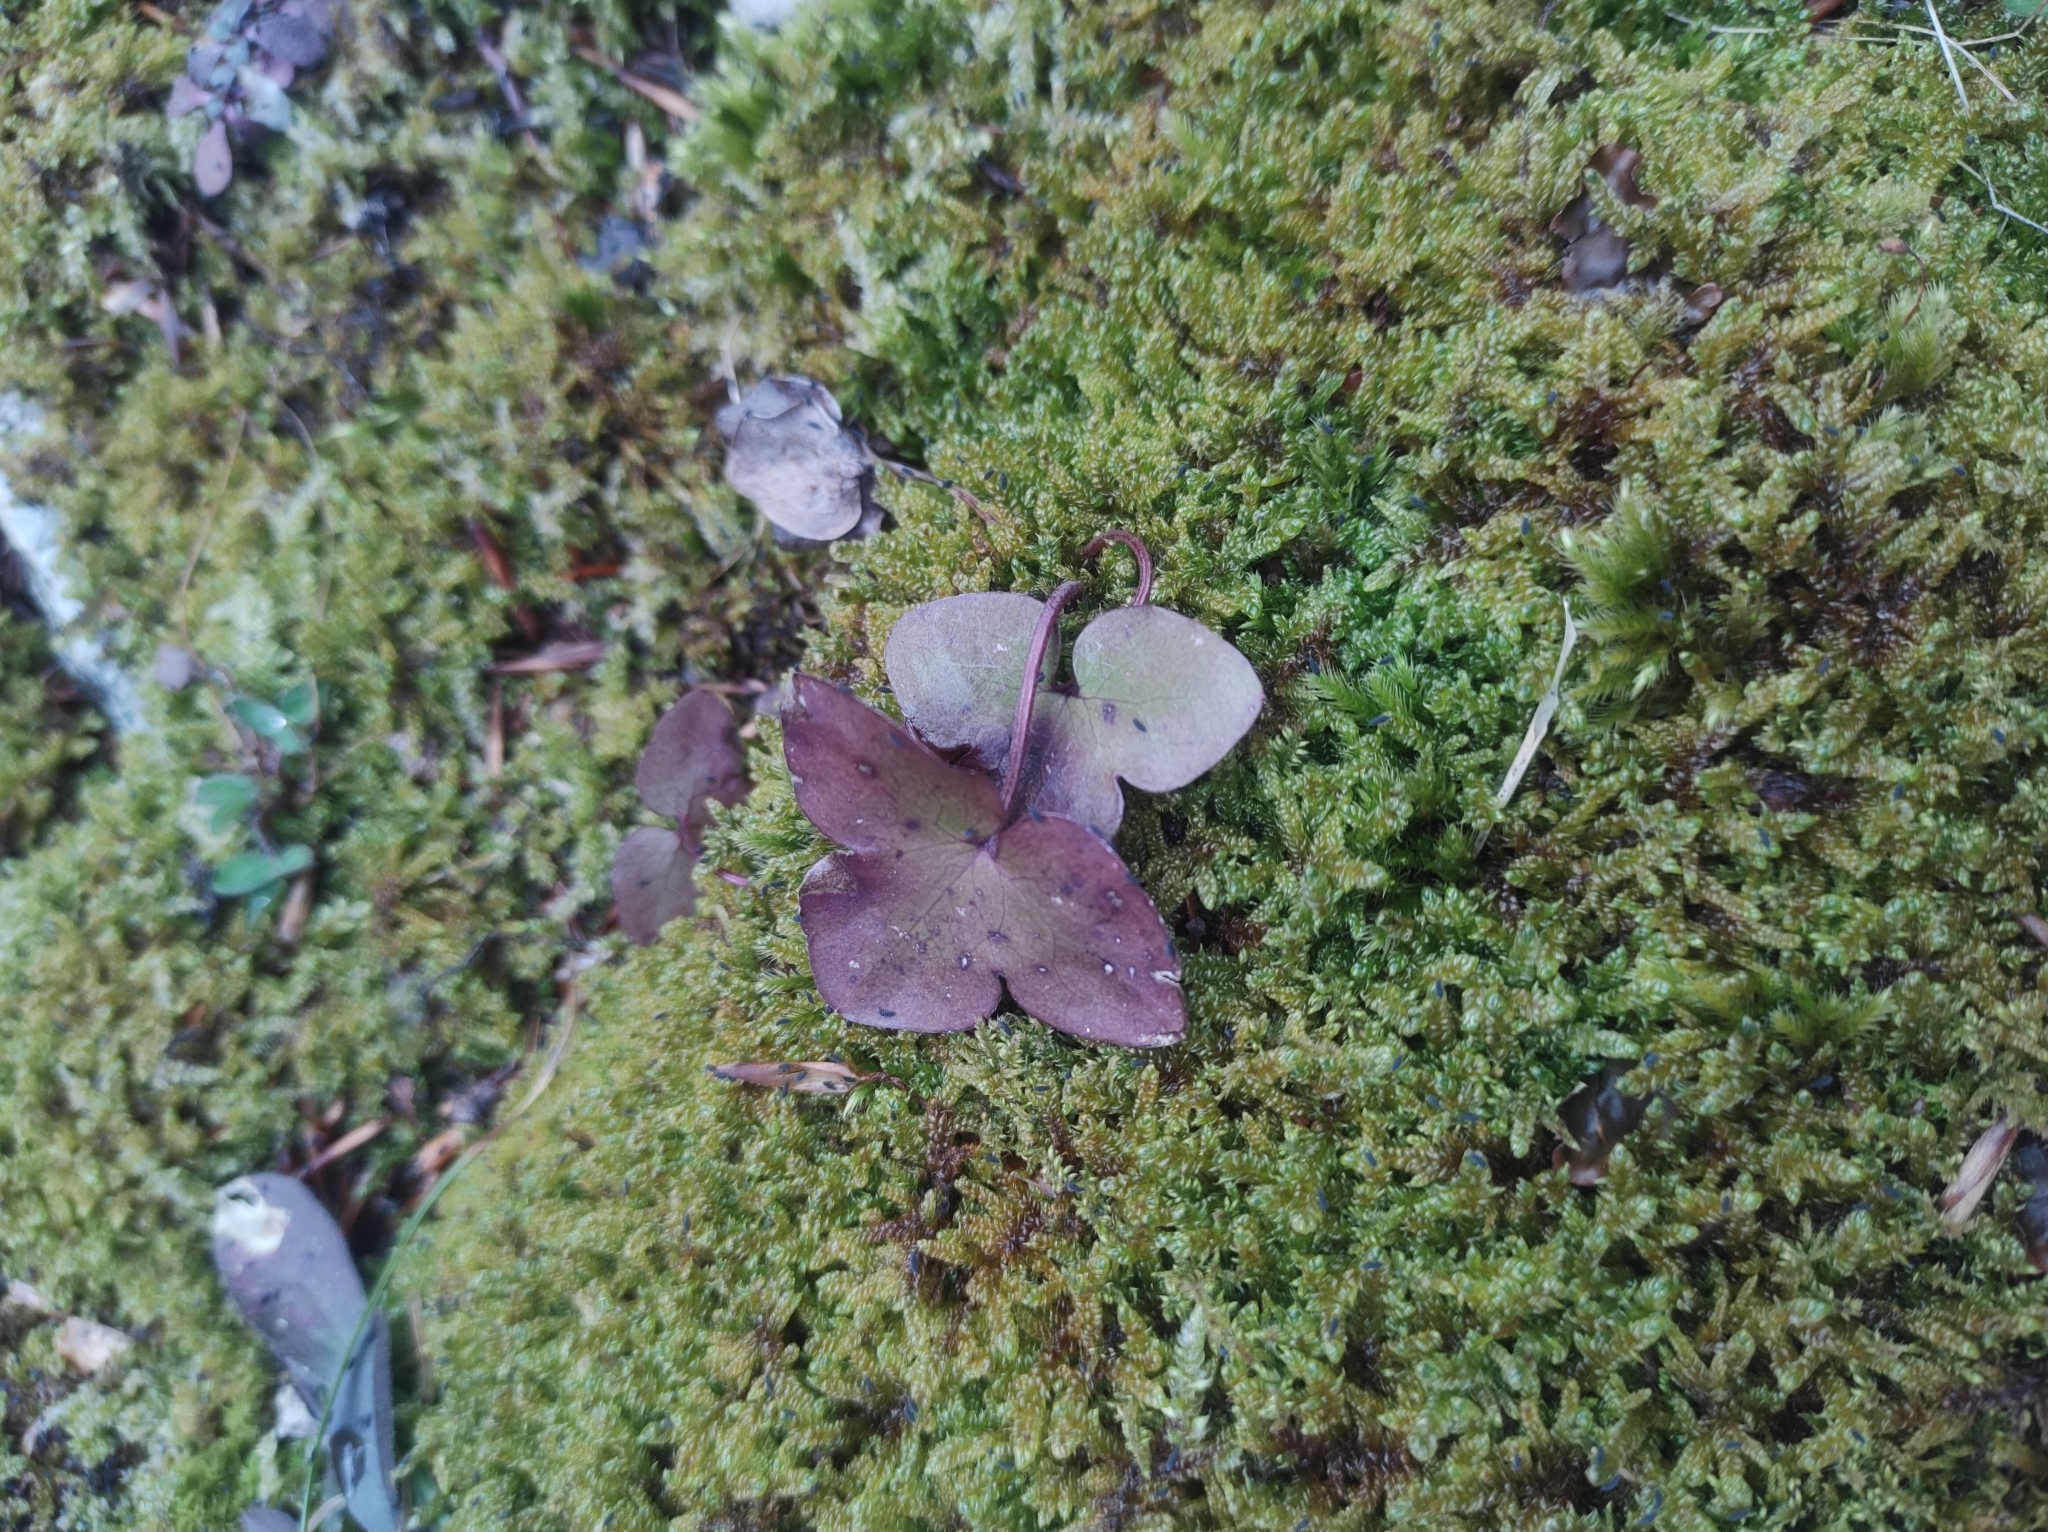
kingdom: Plantae
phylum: Tracheophyta
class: Magnoliopsida
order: Ranunculales
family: Ranunculaceae
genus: Hepatica
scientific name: Hepatica nobilis
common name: Liverleaf
